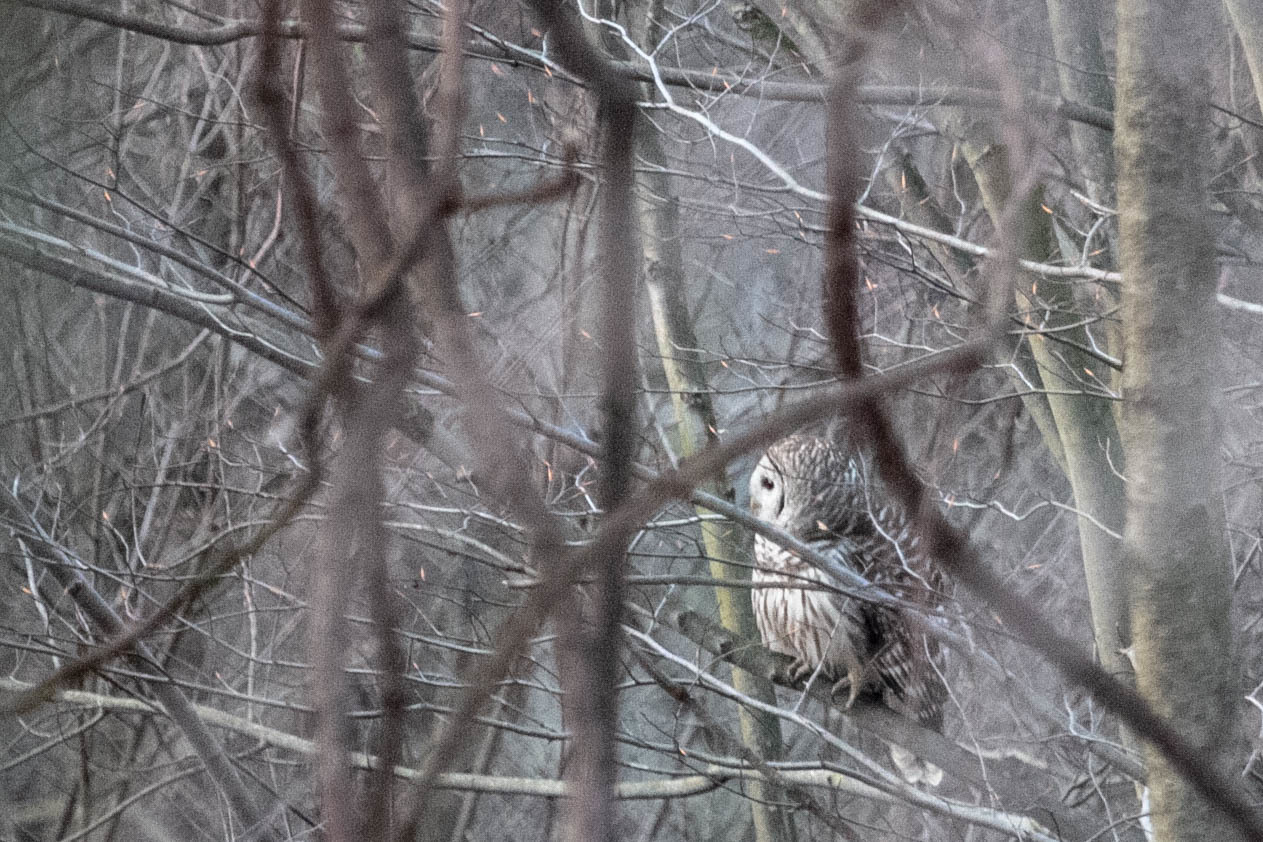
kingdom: Animalia
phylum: Chordata
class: Aves
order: Strigiformes
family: Strigidae
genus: Strix
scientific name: Strix varia
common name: Barred owl
